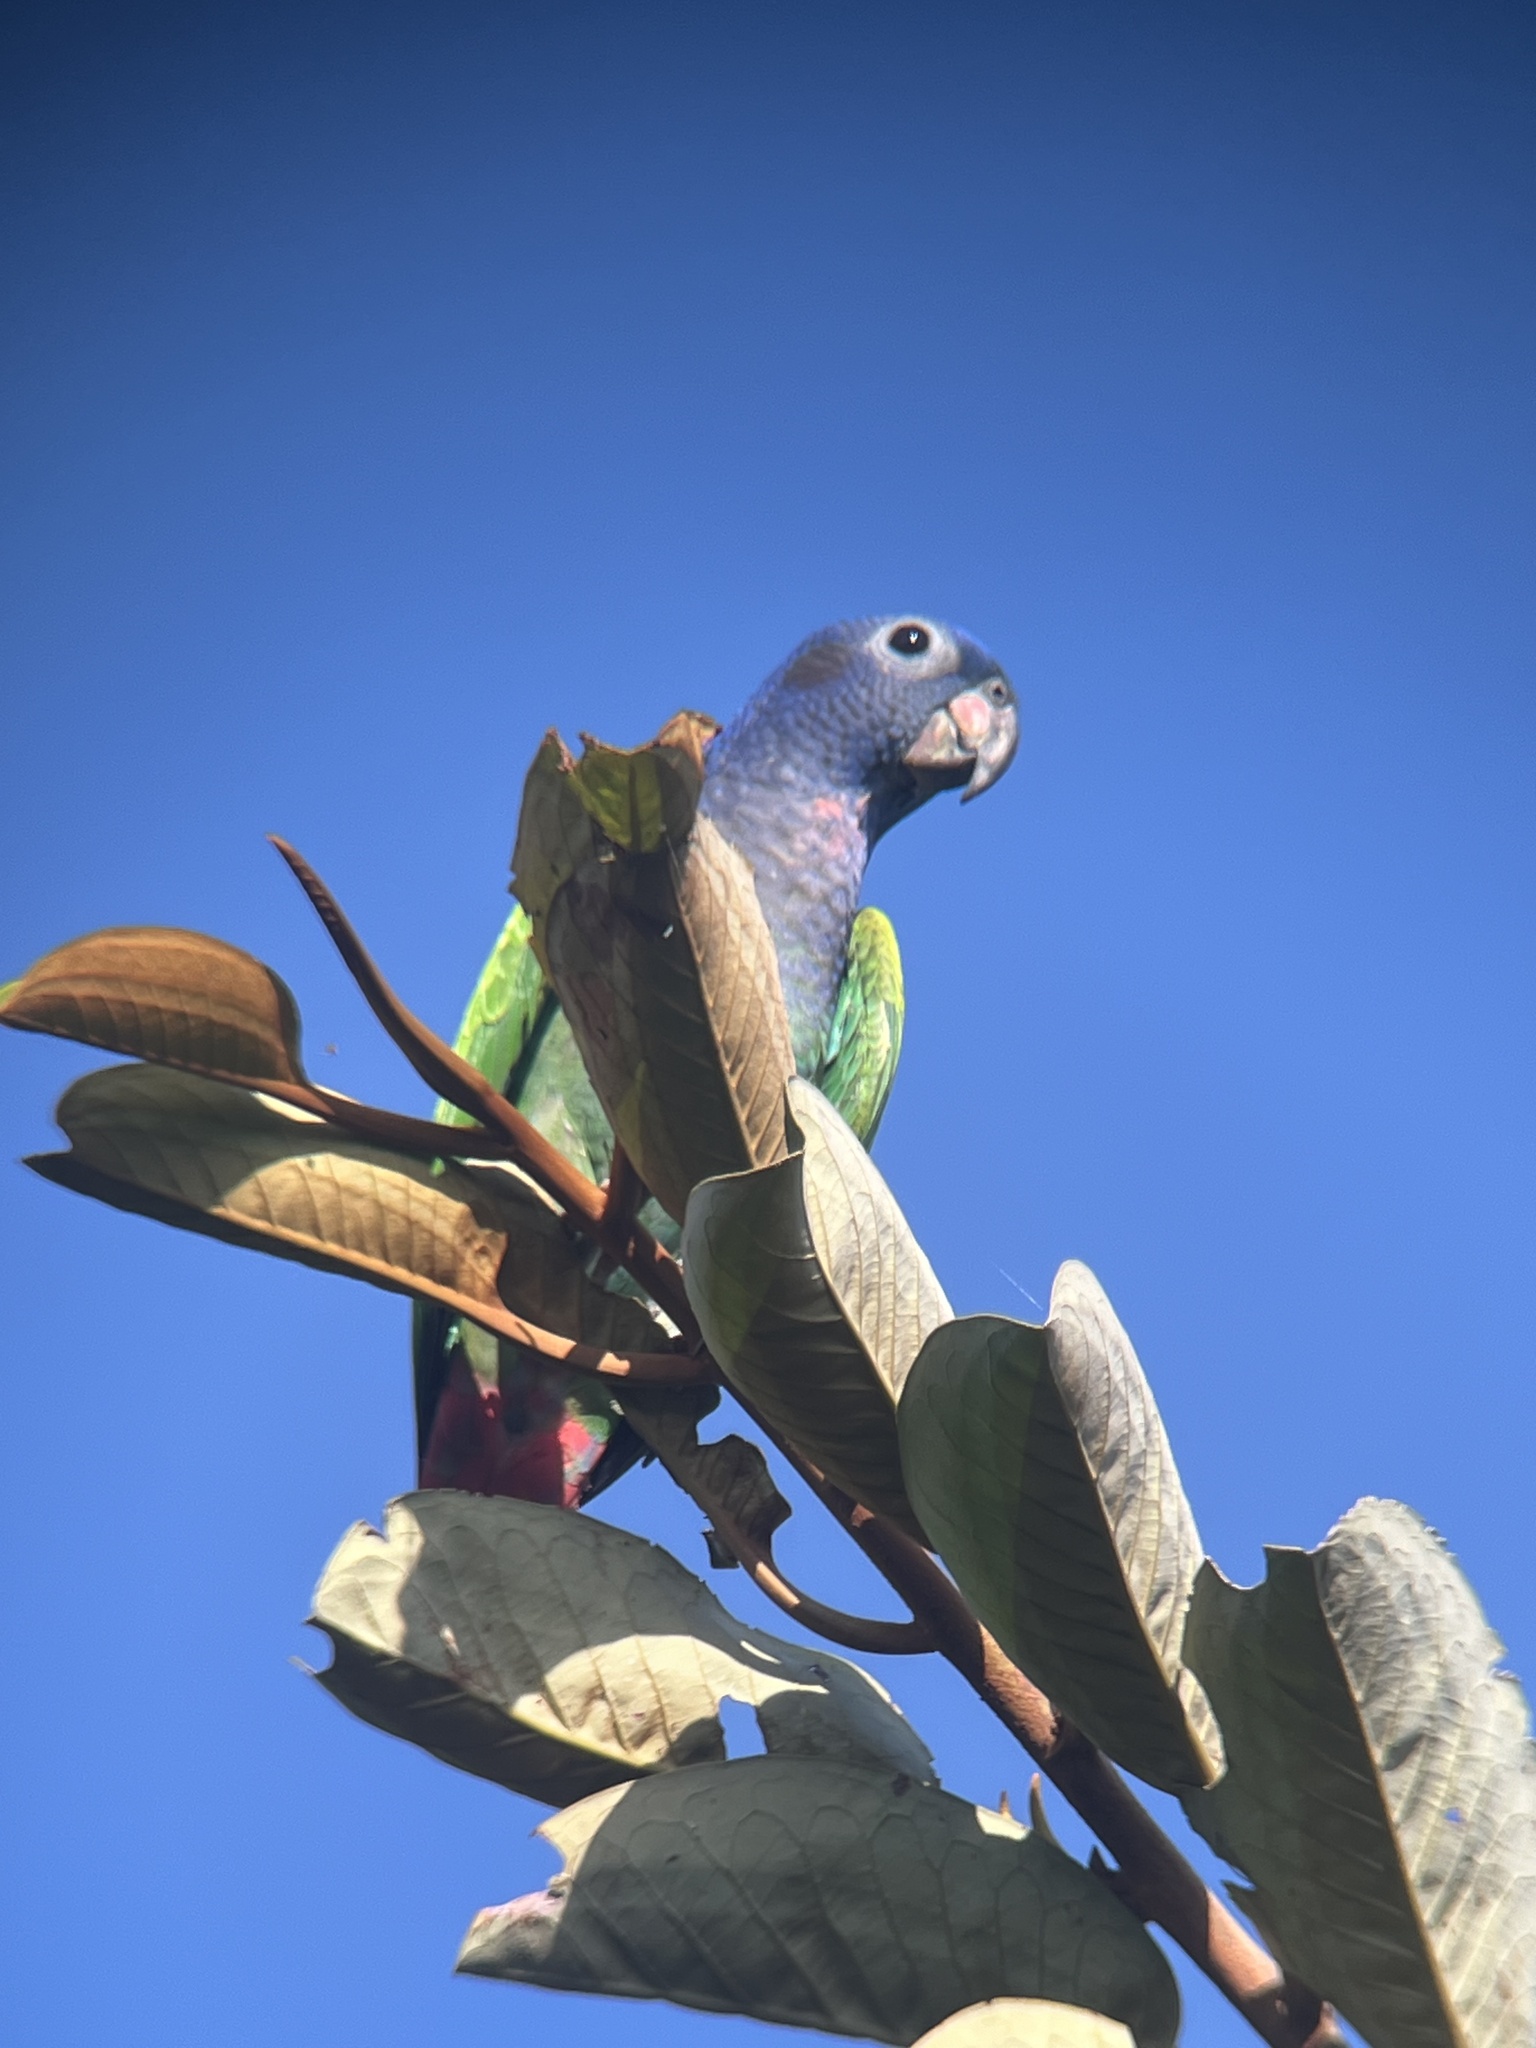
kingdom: Animalia
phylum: Chordata
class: Aves
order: Psittaciformes
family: Psittacidae
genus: Pionus
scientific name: Pionus menstruus
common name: Blue-headed parrot
